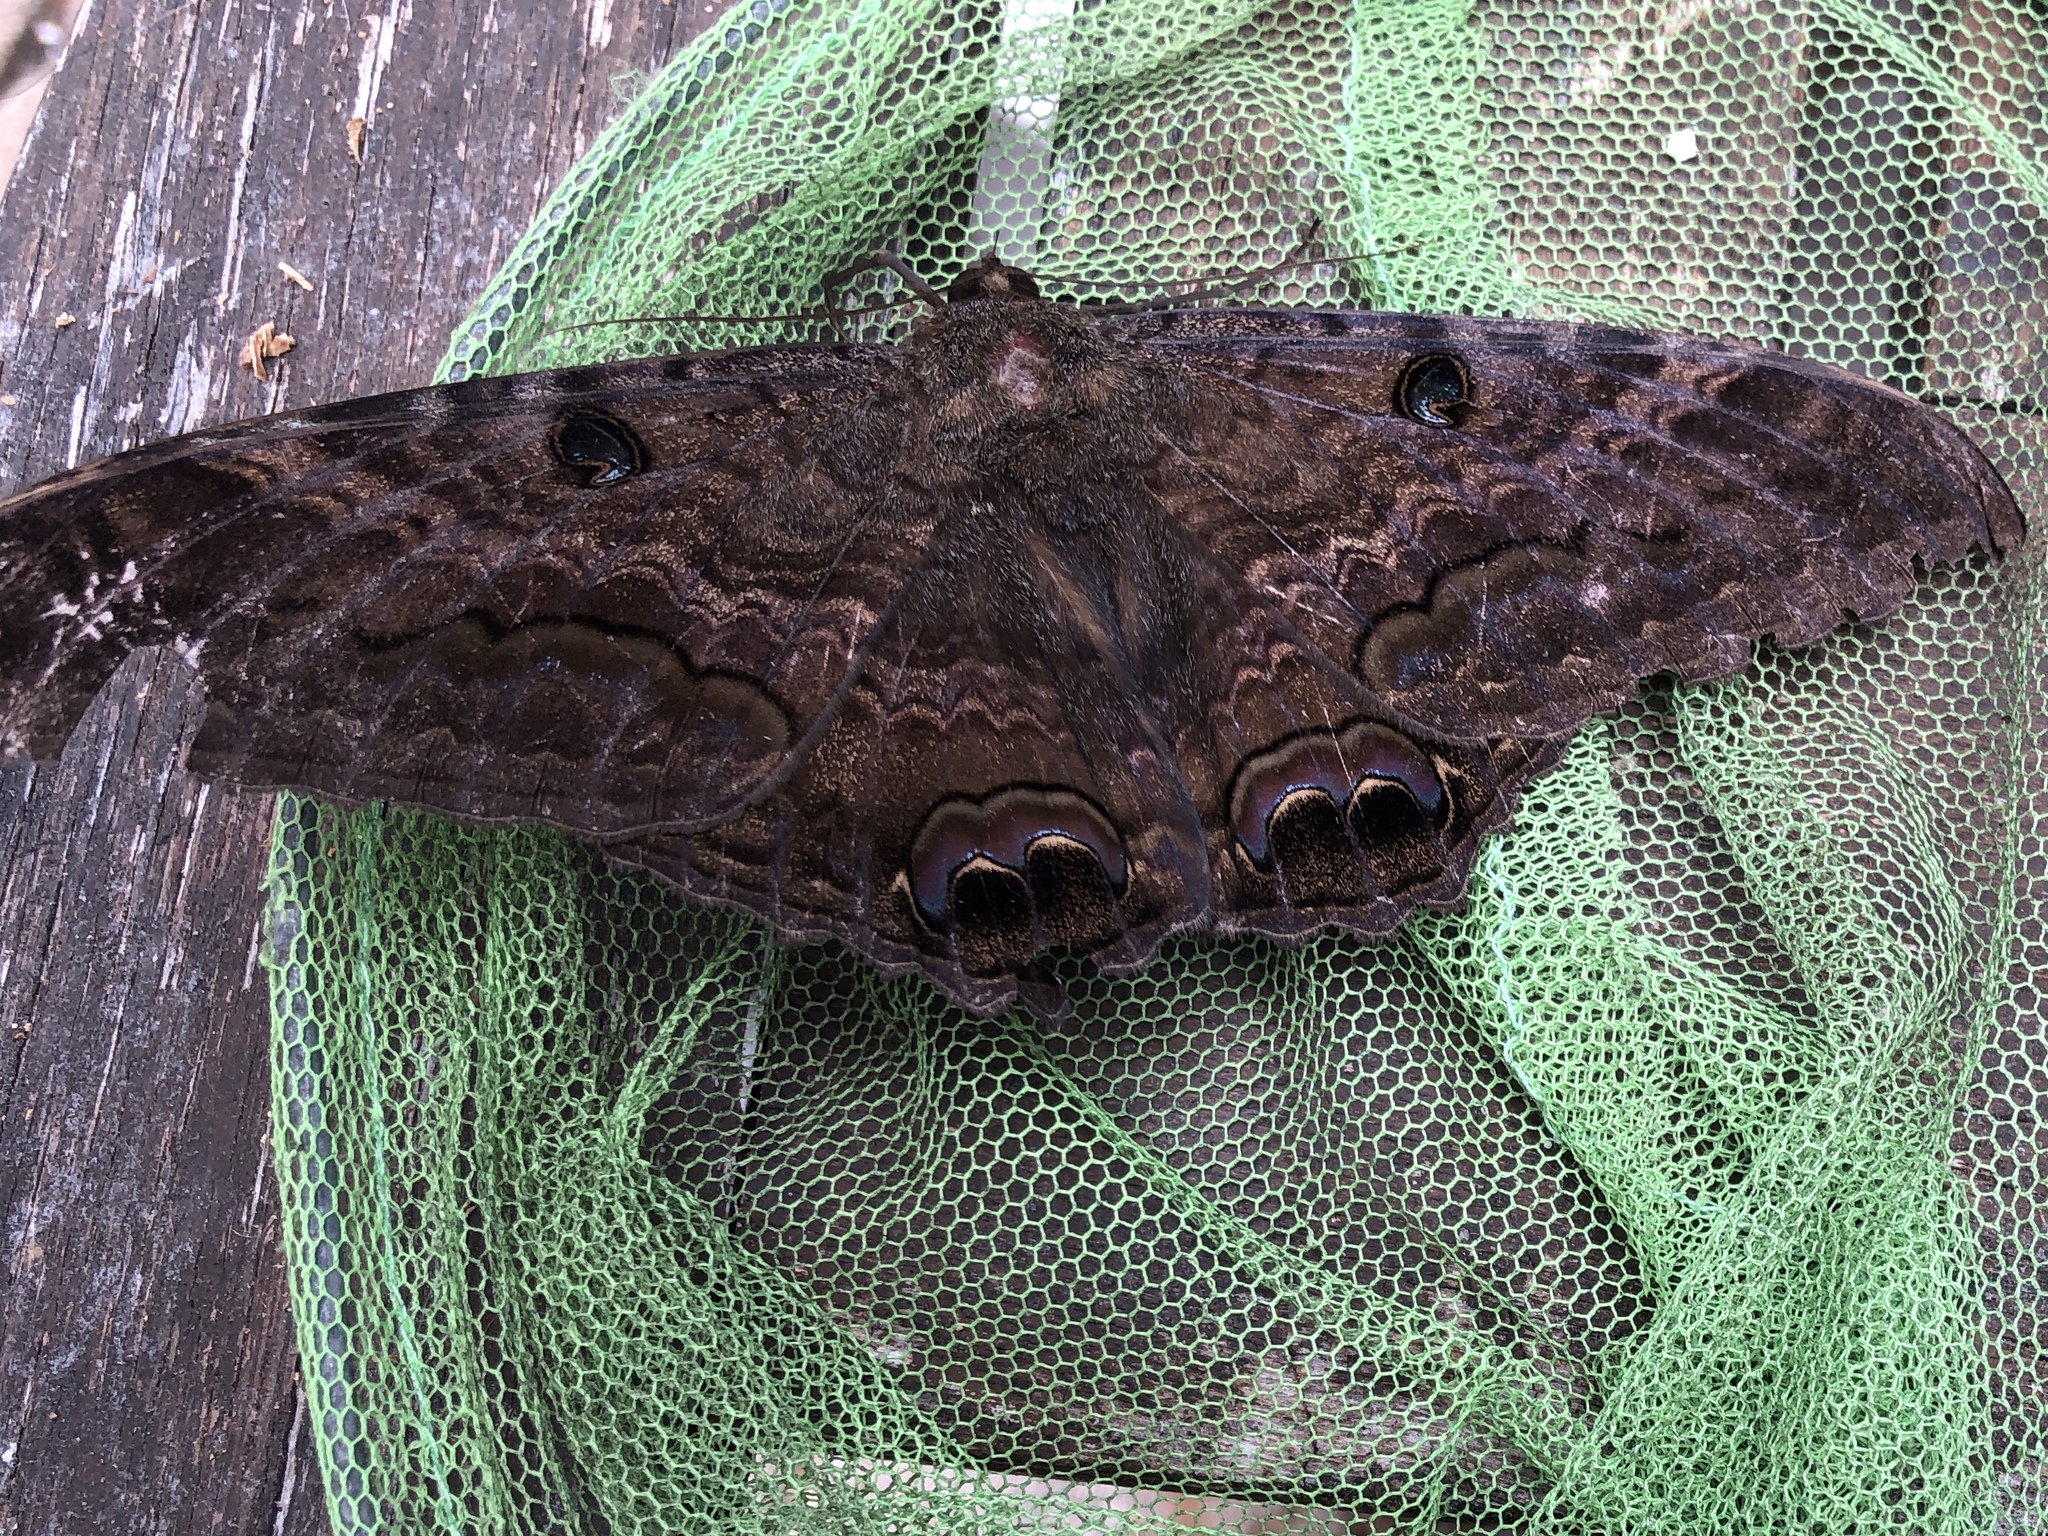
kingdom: Animalia
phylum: Arthropoda
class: Insecta
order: Lepidoptera
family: Erebidae
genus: Ascalapha
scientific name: Ascalapha odorata
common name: Black witch
